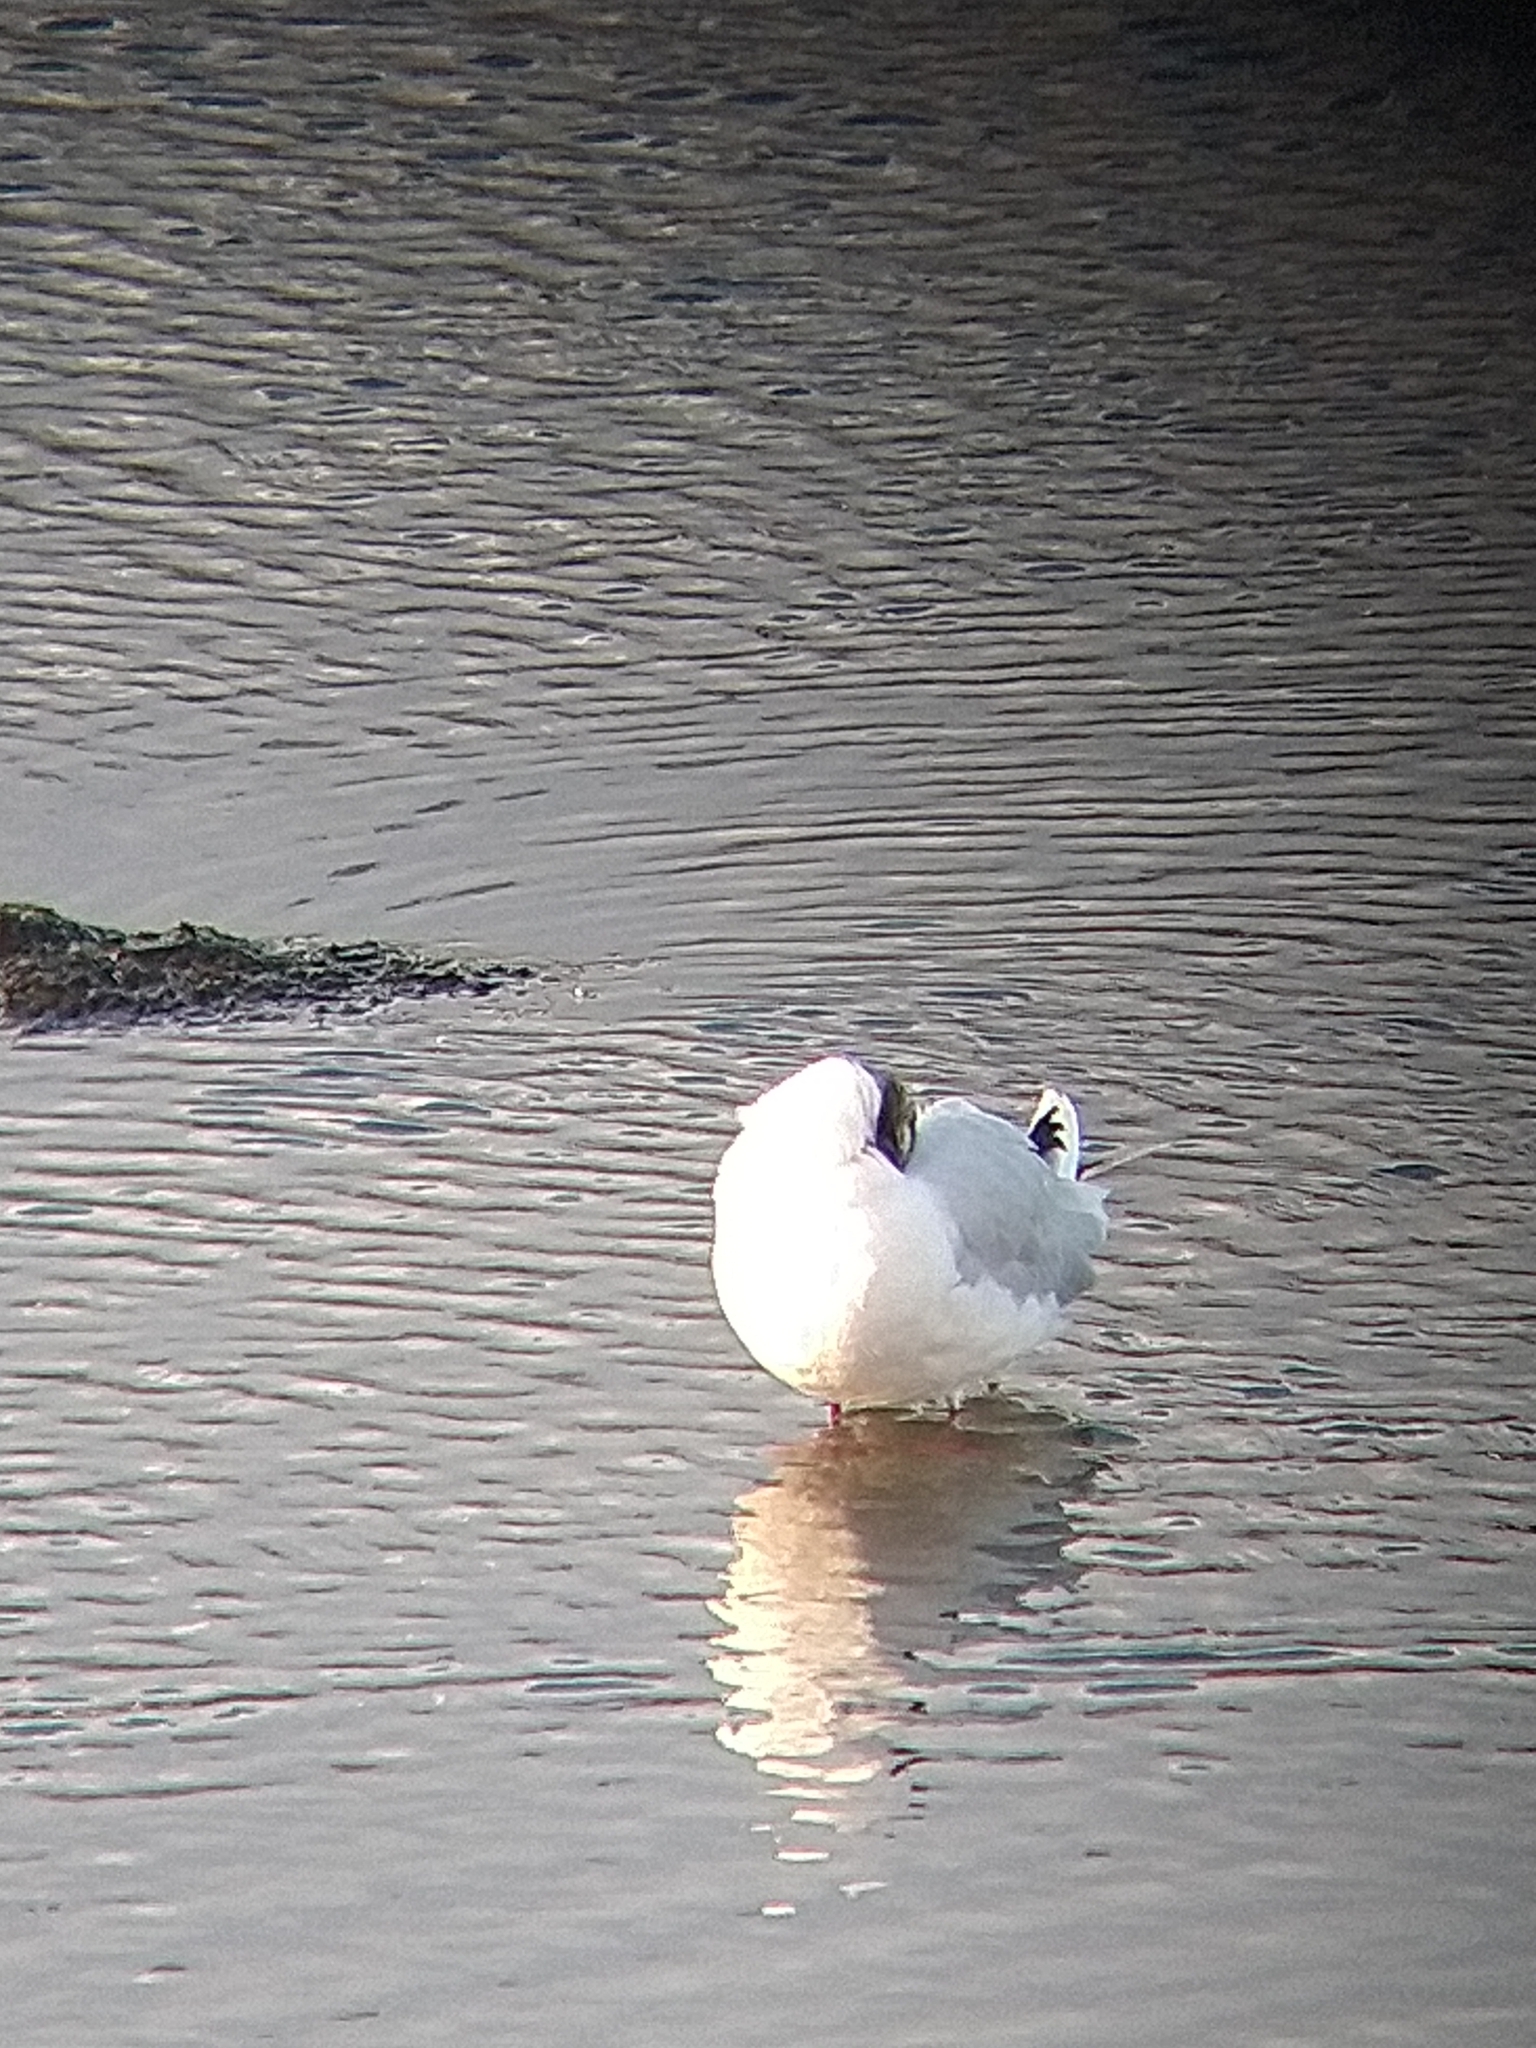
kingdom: Animalia
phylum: Chordata
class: Aves
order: Charadriiformes
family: Laridae
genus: Chroicocephalus
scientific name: Chroicocephalus maculipennis
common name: Brown-hooded gull
